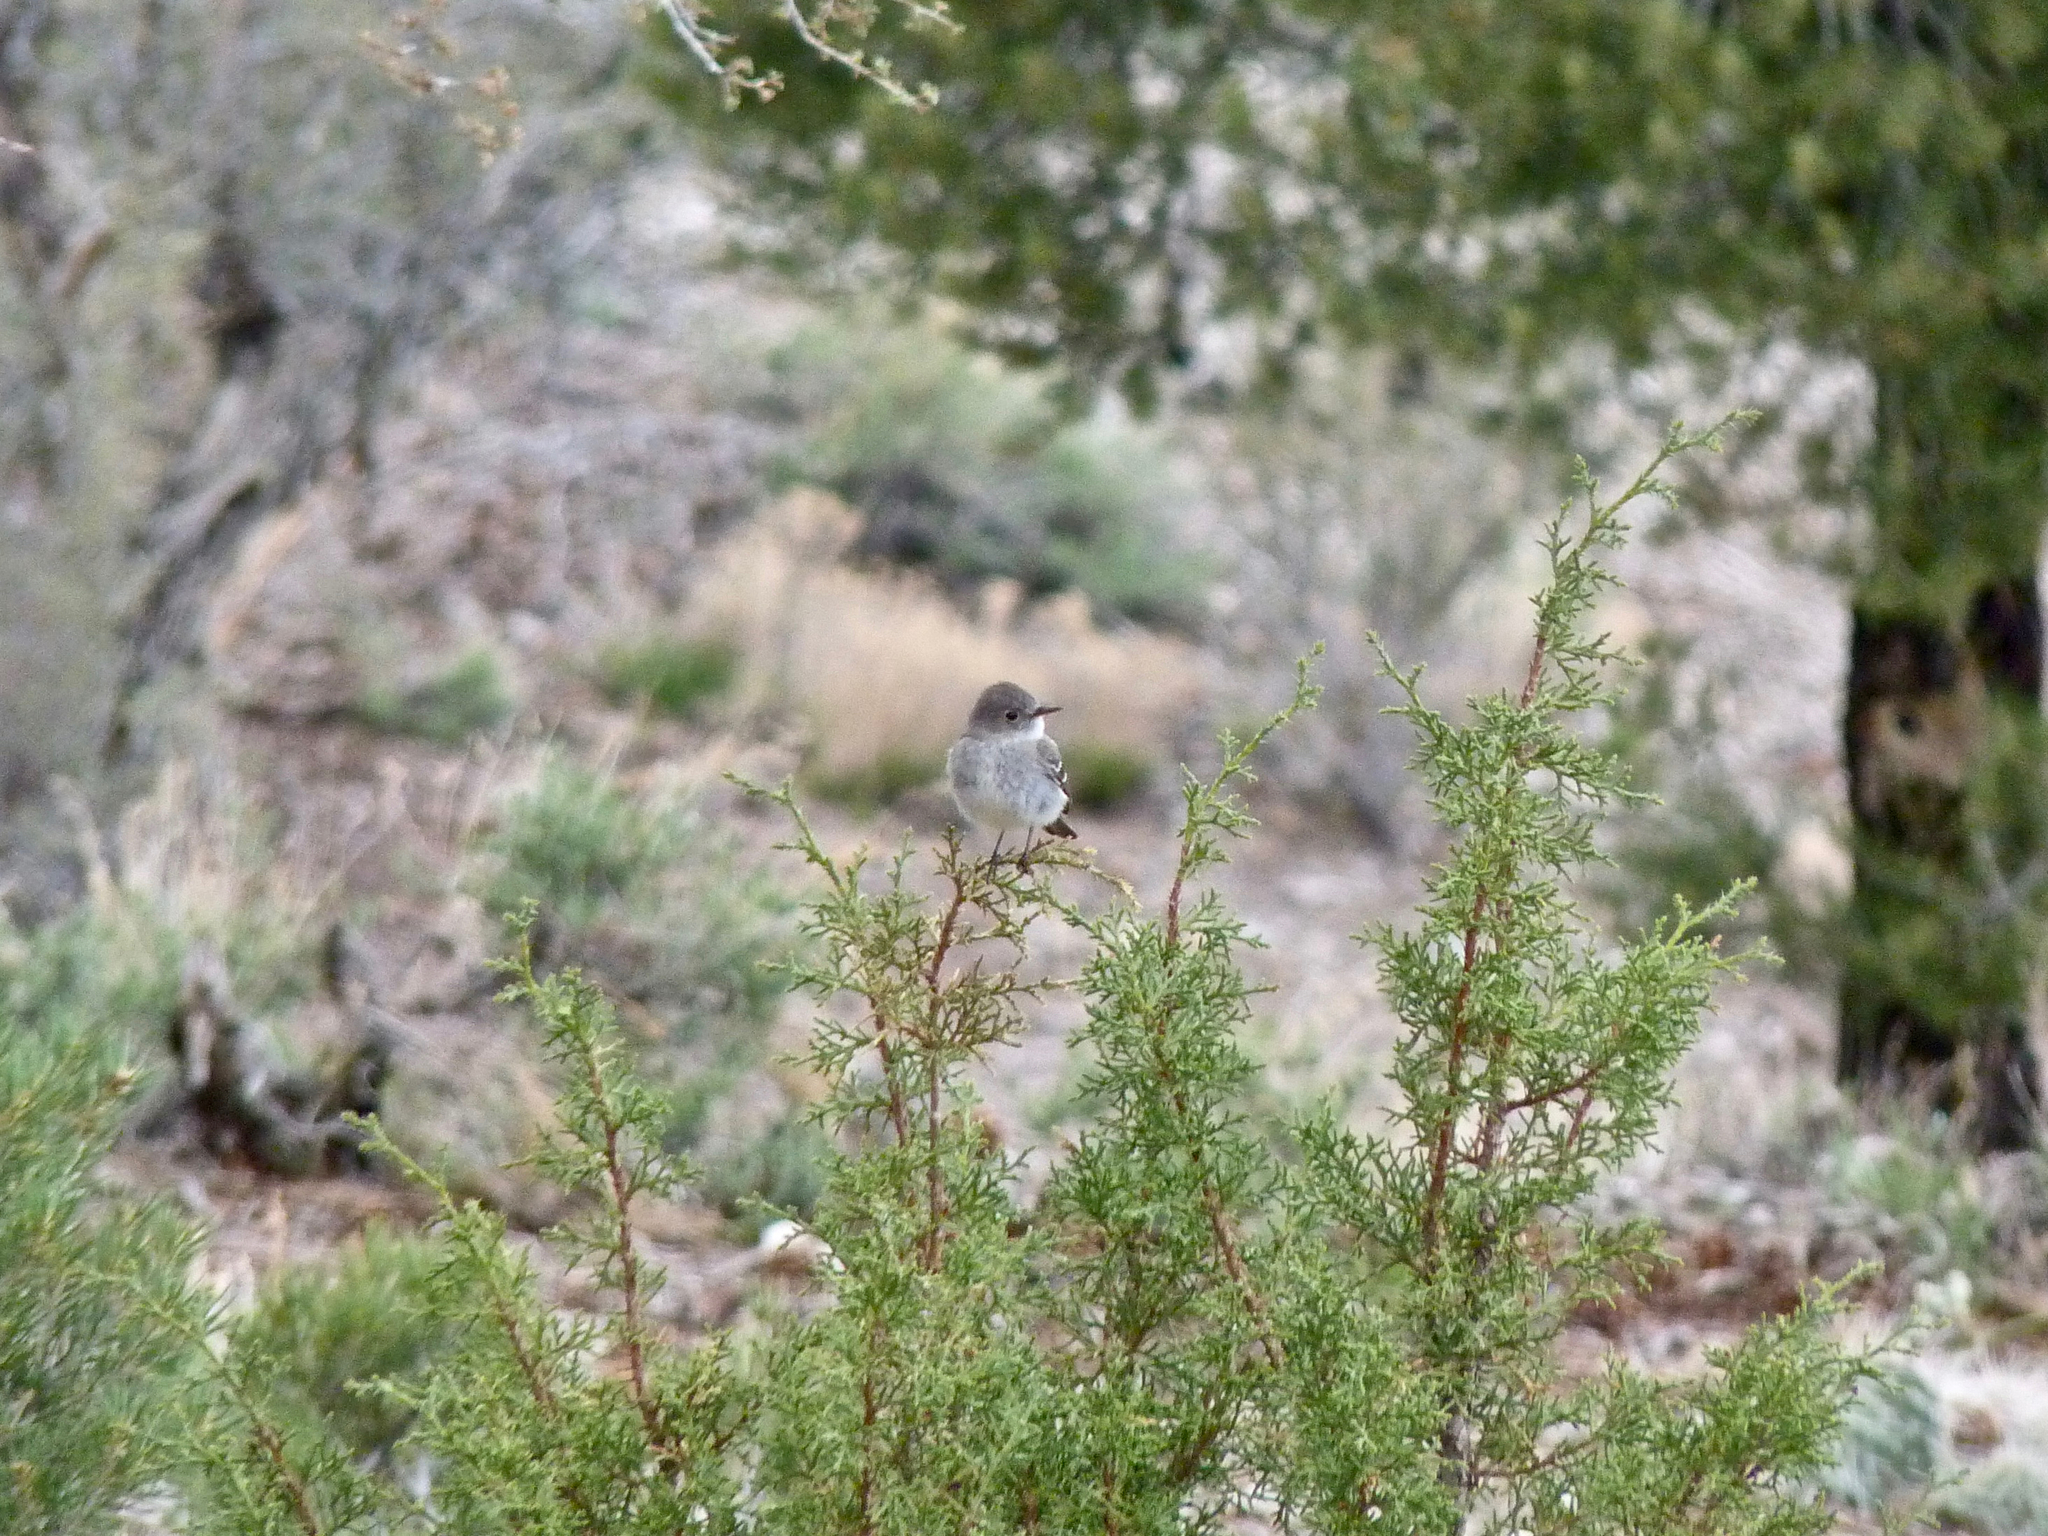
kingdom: Animalia
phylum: Chordata
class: Aves
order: Passeriformes
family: Tyrannidae
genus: Empidonax
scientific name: Empidonax wrightii
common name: Gray flycatcher
